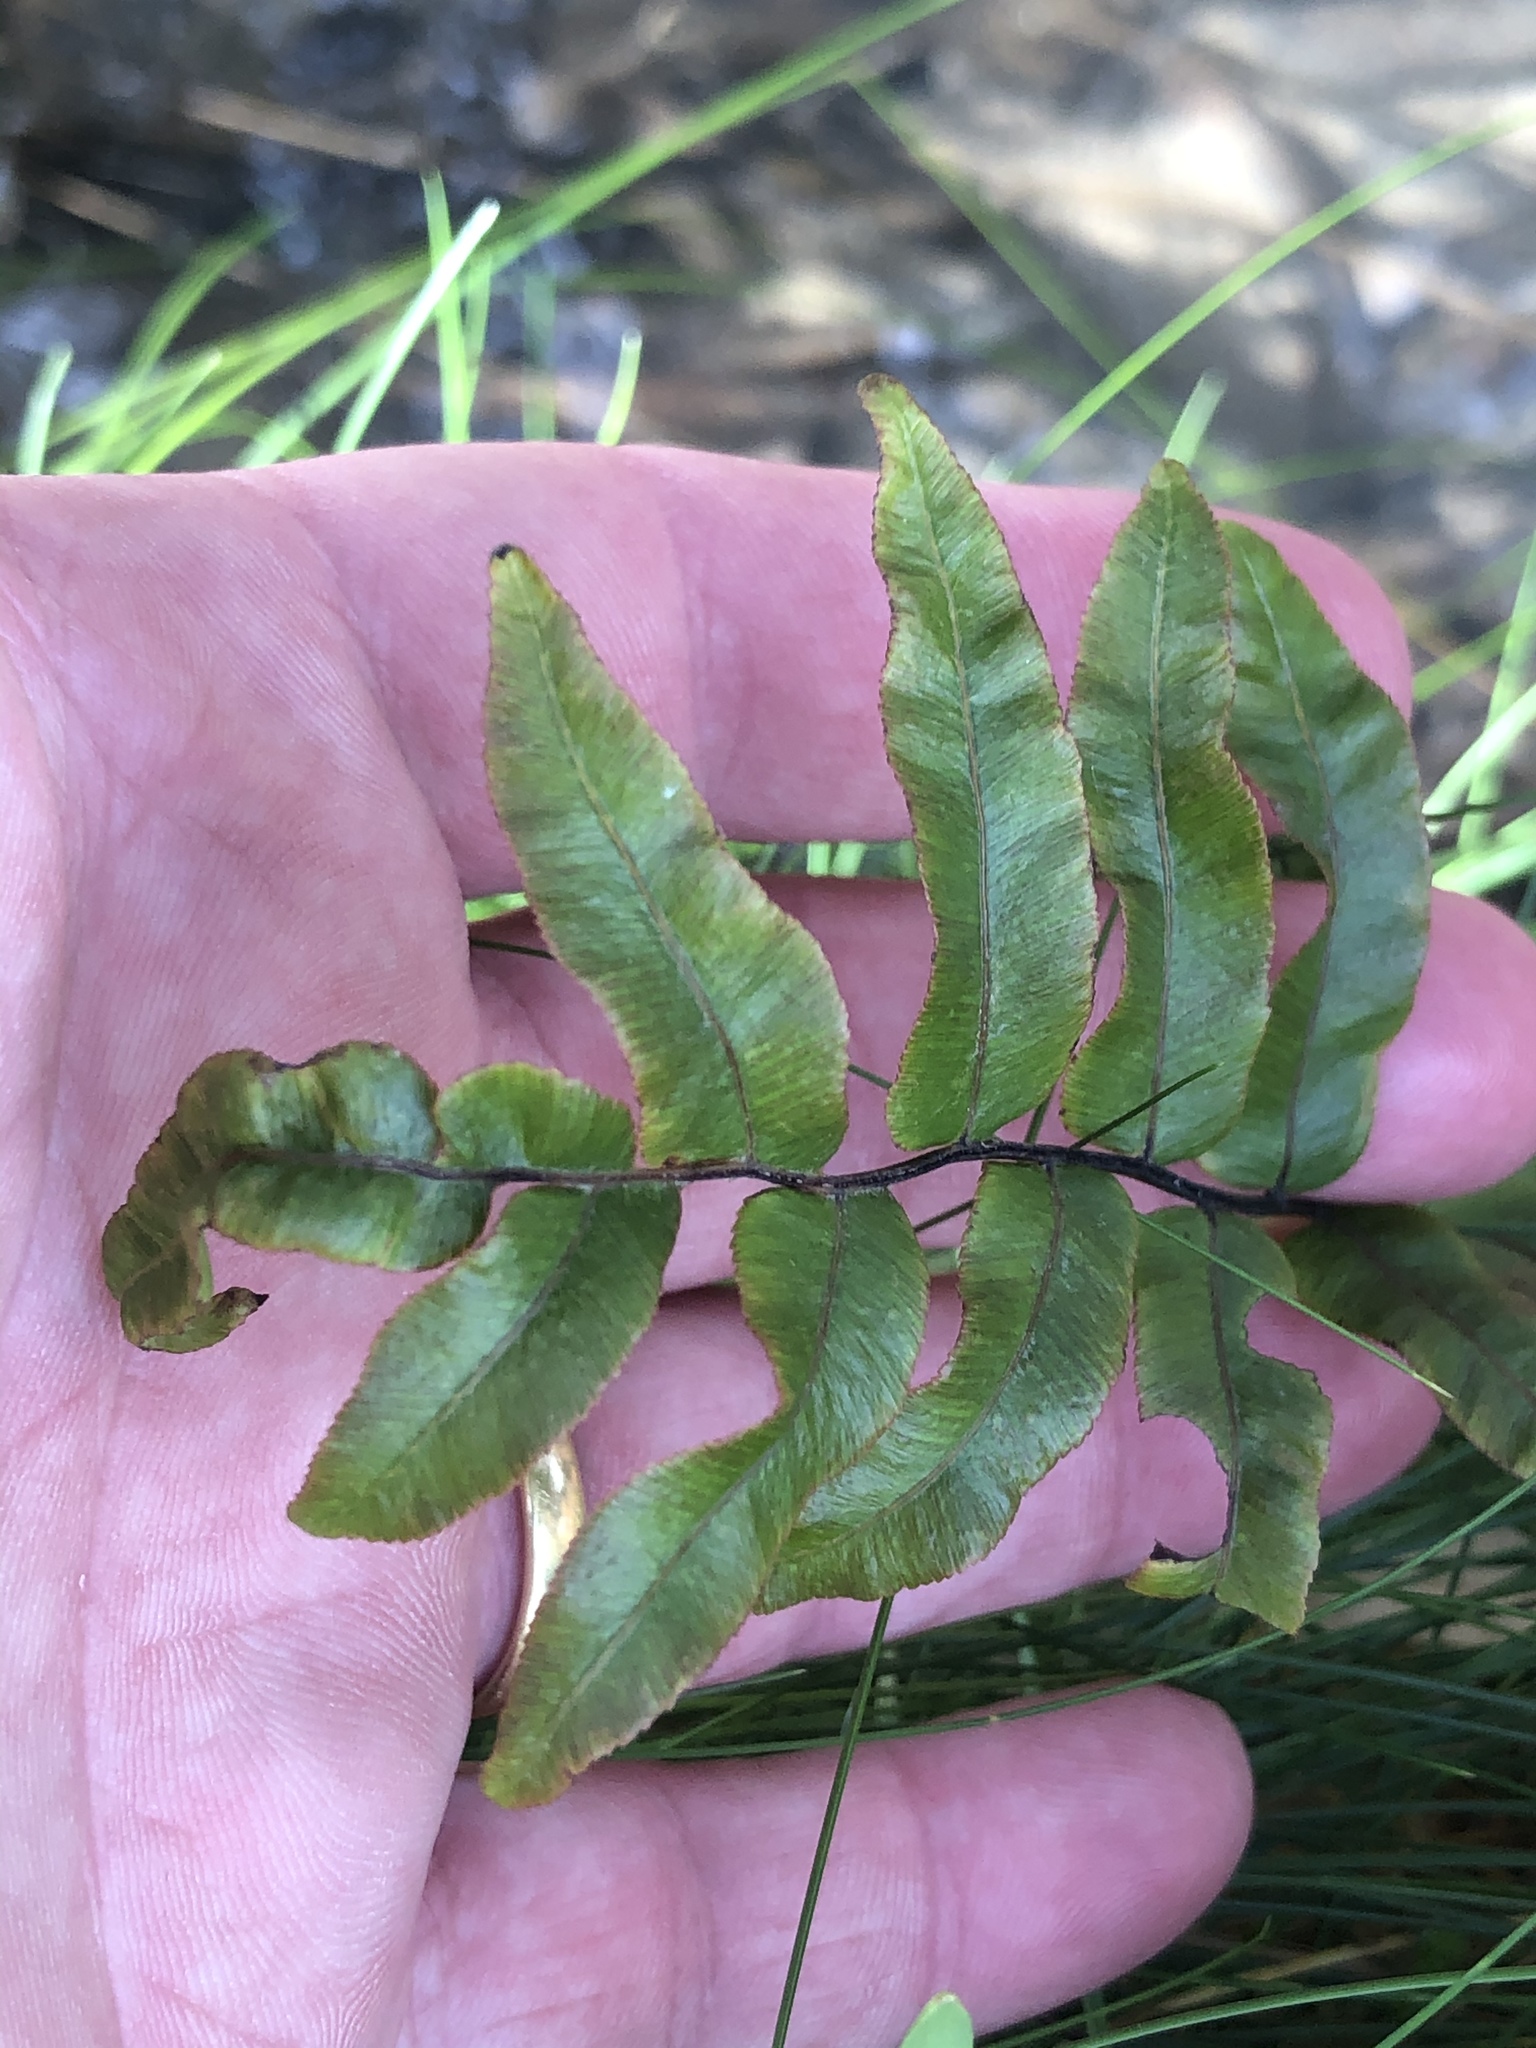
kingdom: Plantae
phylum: Tracheophyta
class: Polypodiopsida
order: Polypodiales
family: Blechnaceae
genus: Parablechnum
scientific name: Parablechnum minus
